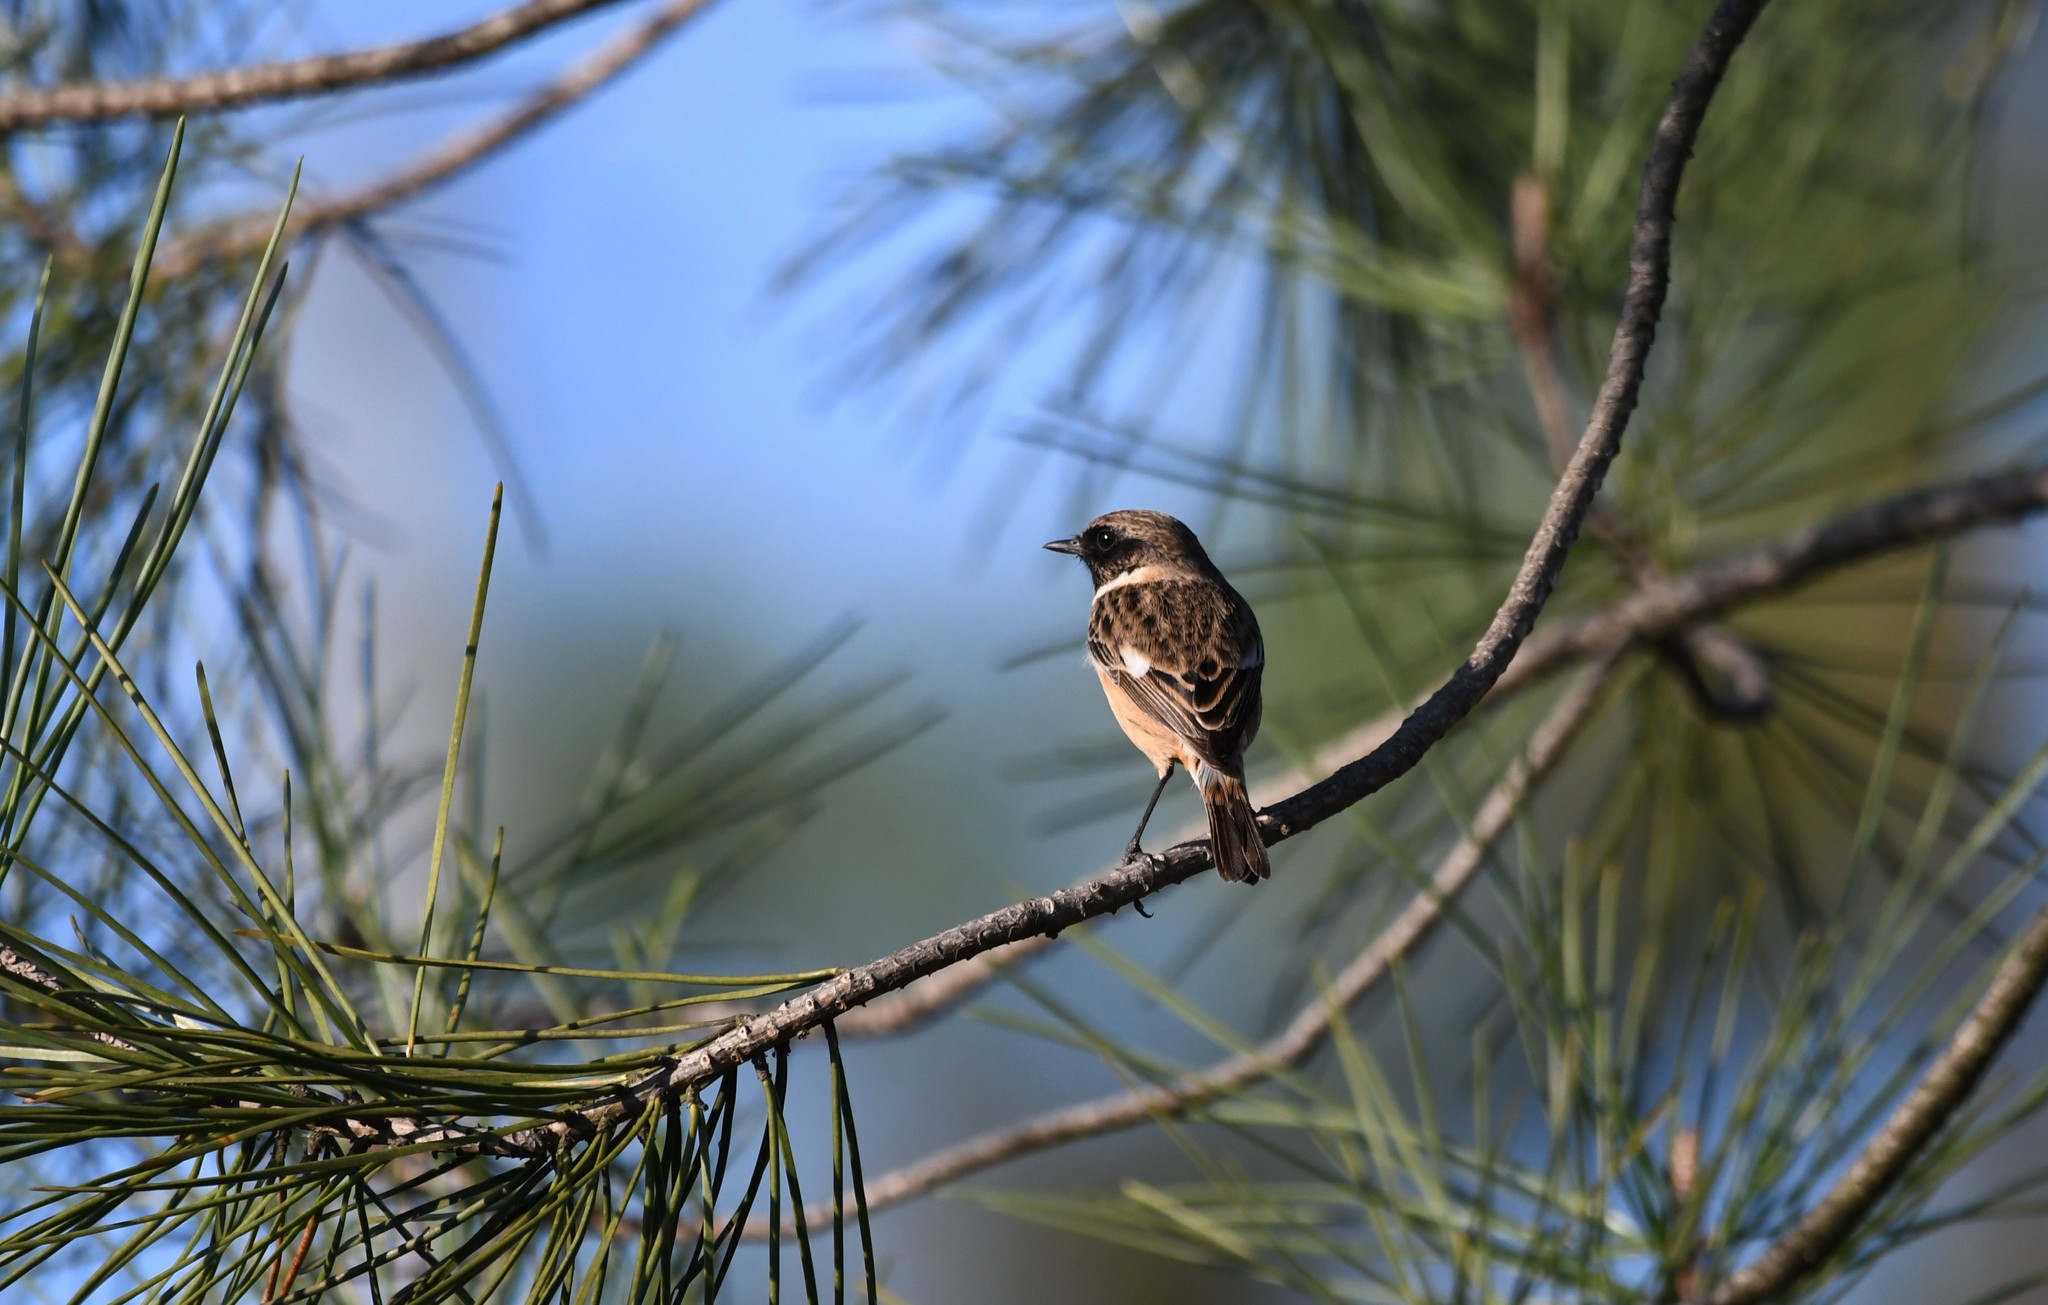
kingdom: Animalia
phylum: Chordata
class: Aves
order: Passeriformes
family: Muscicapidae
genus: Saxicola
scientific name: Saxicola rubicola
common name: European stonechat
